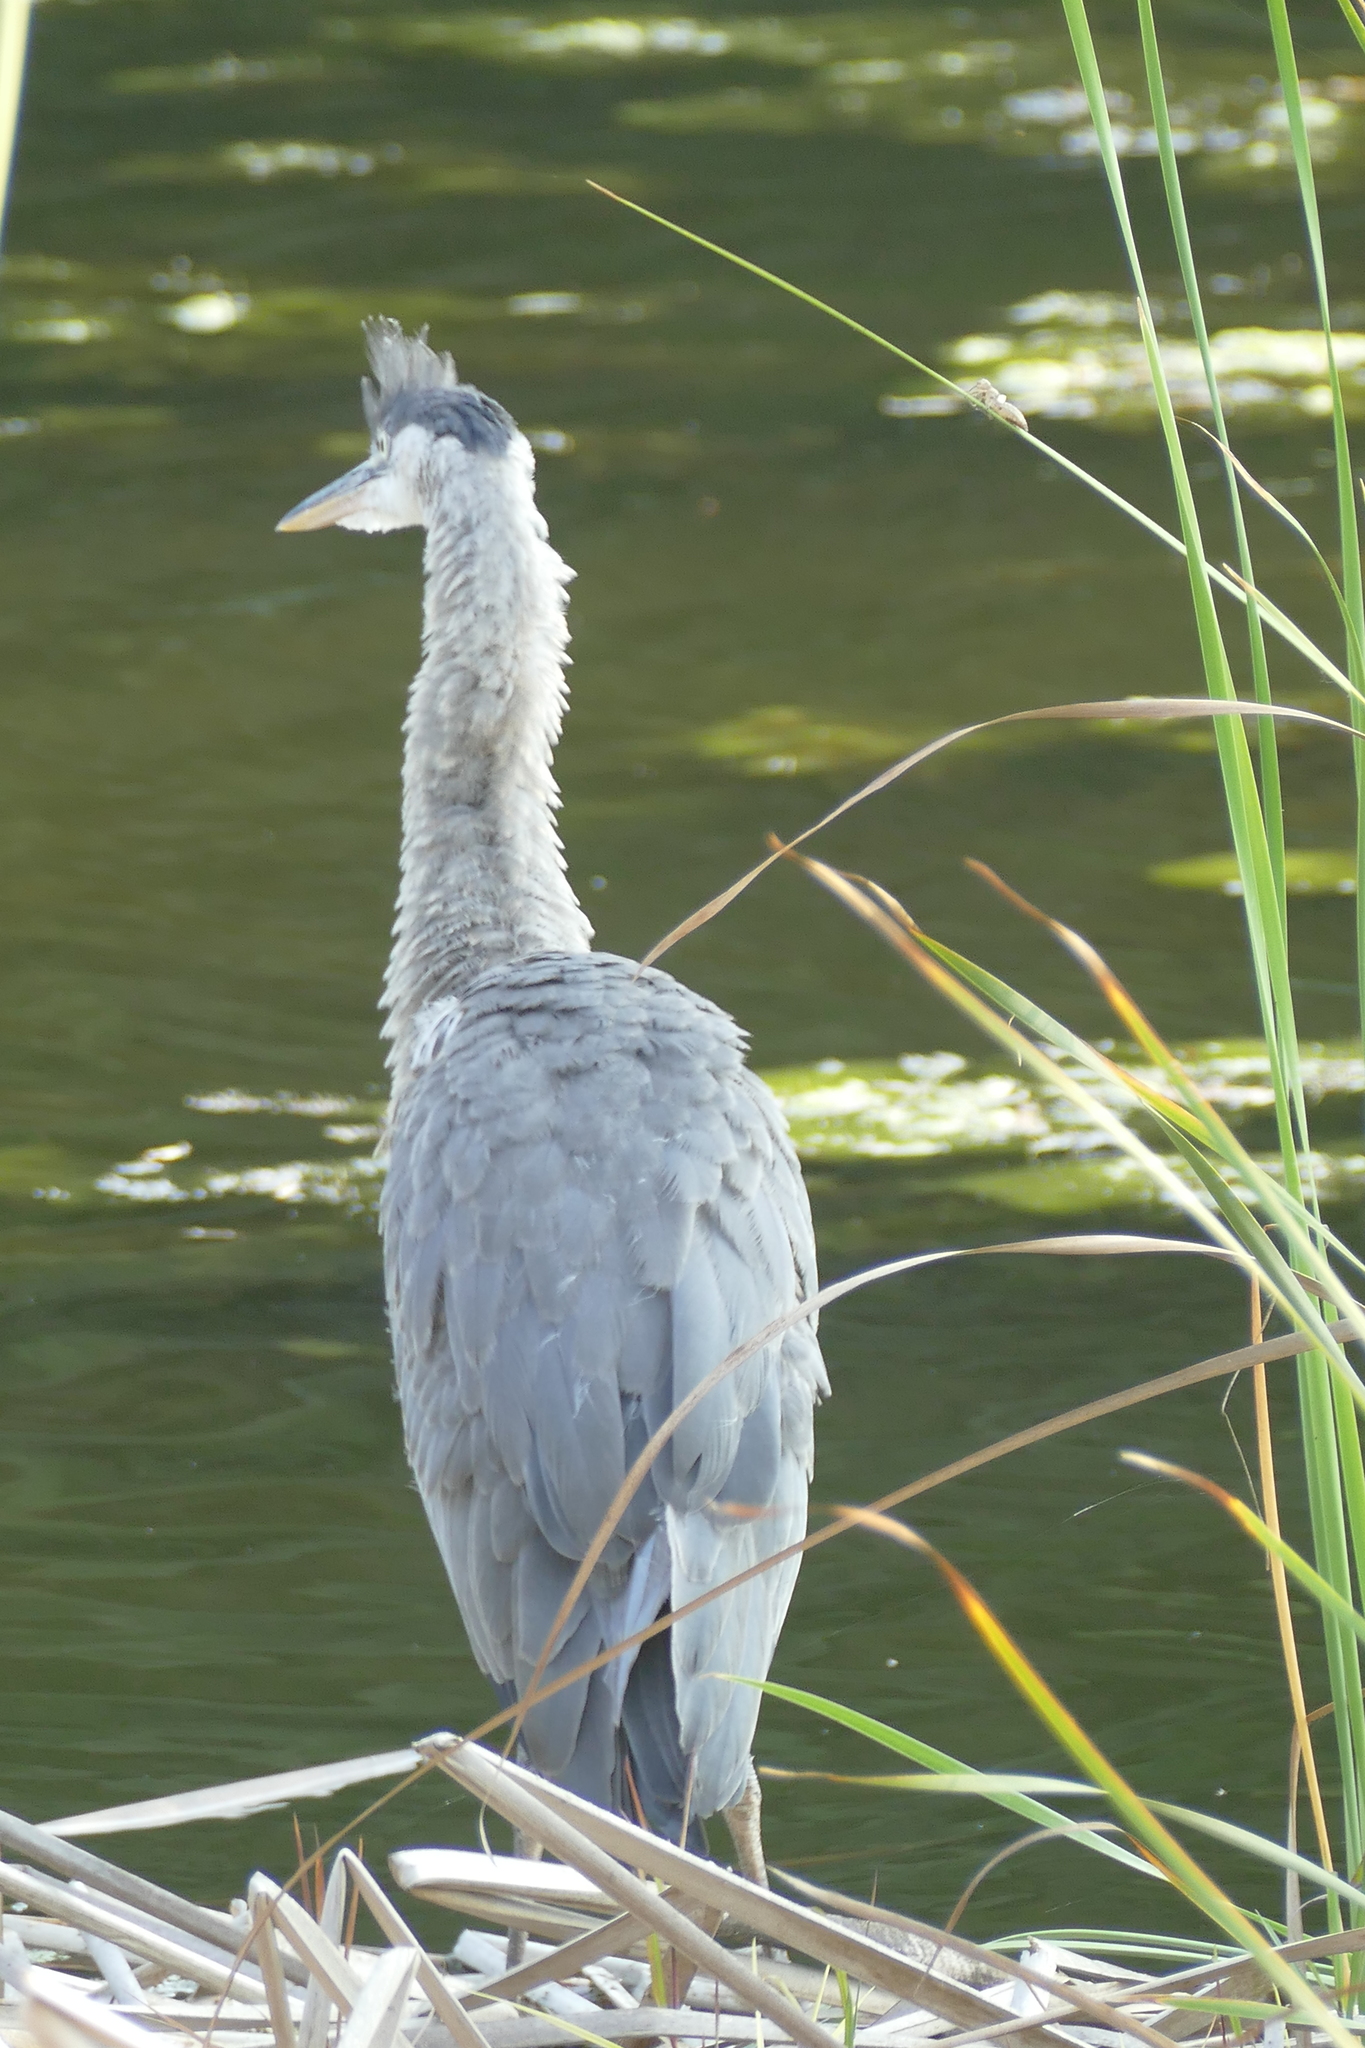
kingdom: Animalia
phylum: Chordata
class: Aves
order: Pelecaniformes
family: Ardeidae
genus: Ardea
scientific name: Ardea herodias
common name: Great blue heron
